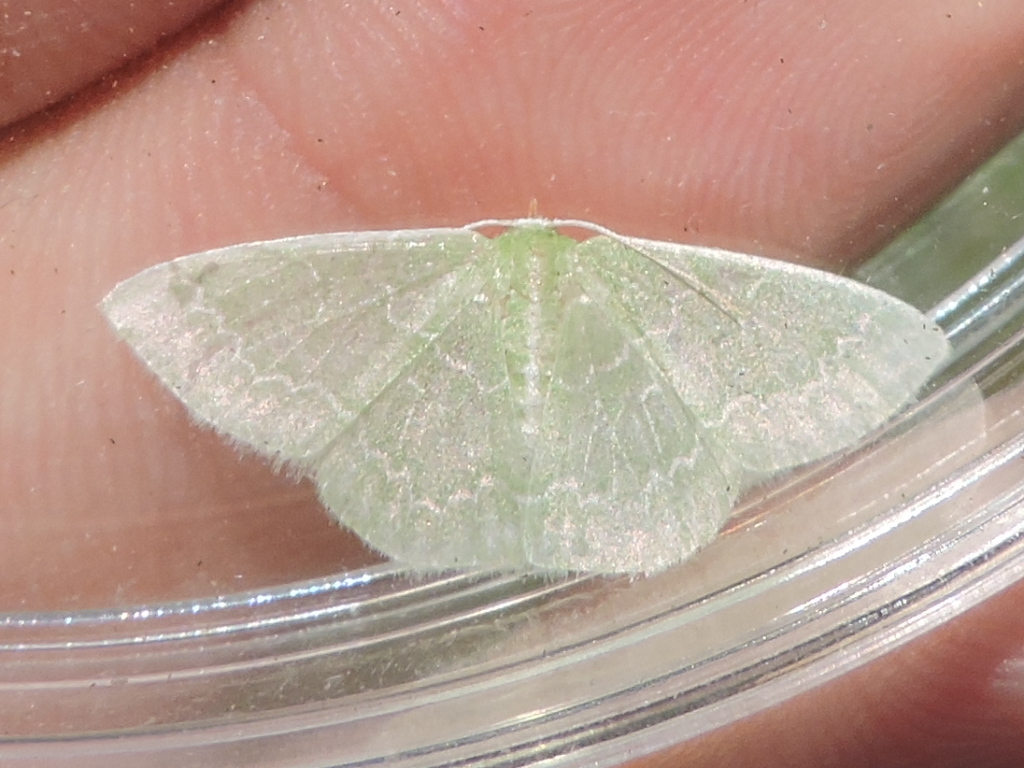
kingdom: Animalia
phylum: Arthropoda
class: Insecta
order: Lepidoptera
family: Geometridae
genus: Synchlora
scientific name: Synchlora frondaria
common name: Southern emerald
